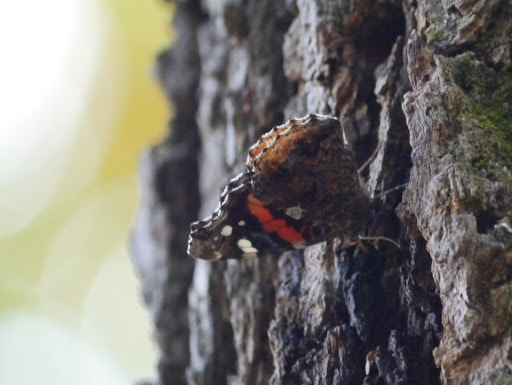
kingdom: Animalia
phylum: Arthropoda
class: Insecta
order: Lepidoptera
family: Nymphalidae
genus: Vanessa
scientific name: Vanessa atalanta
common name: Red admiral
